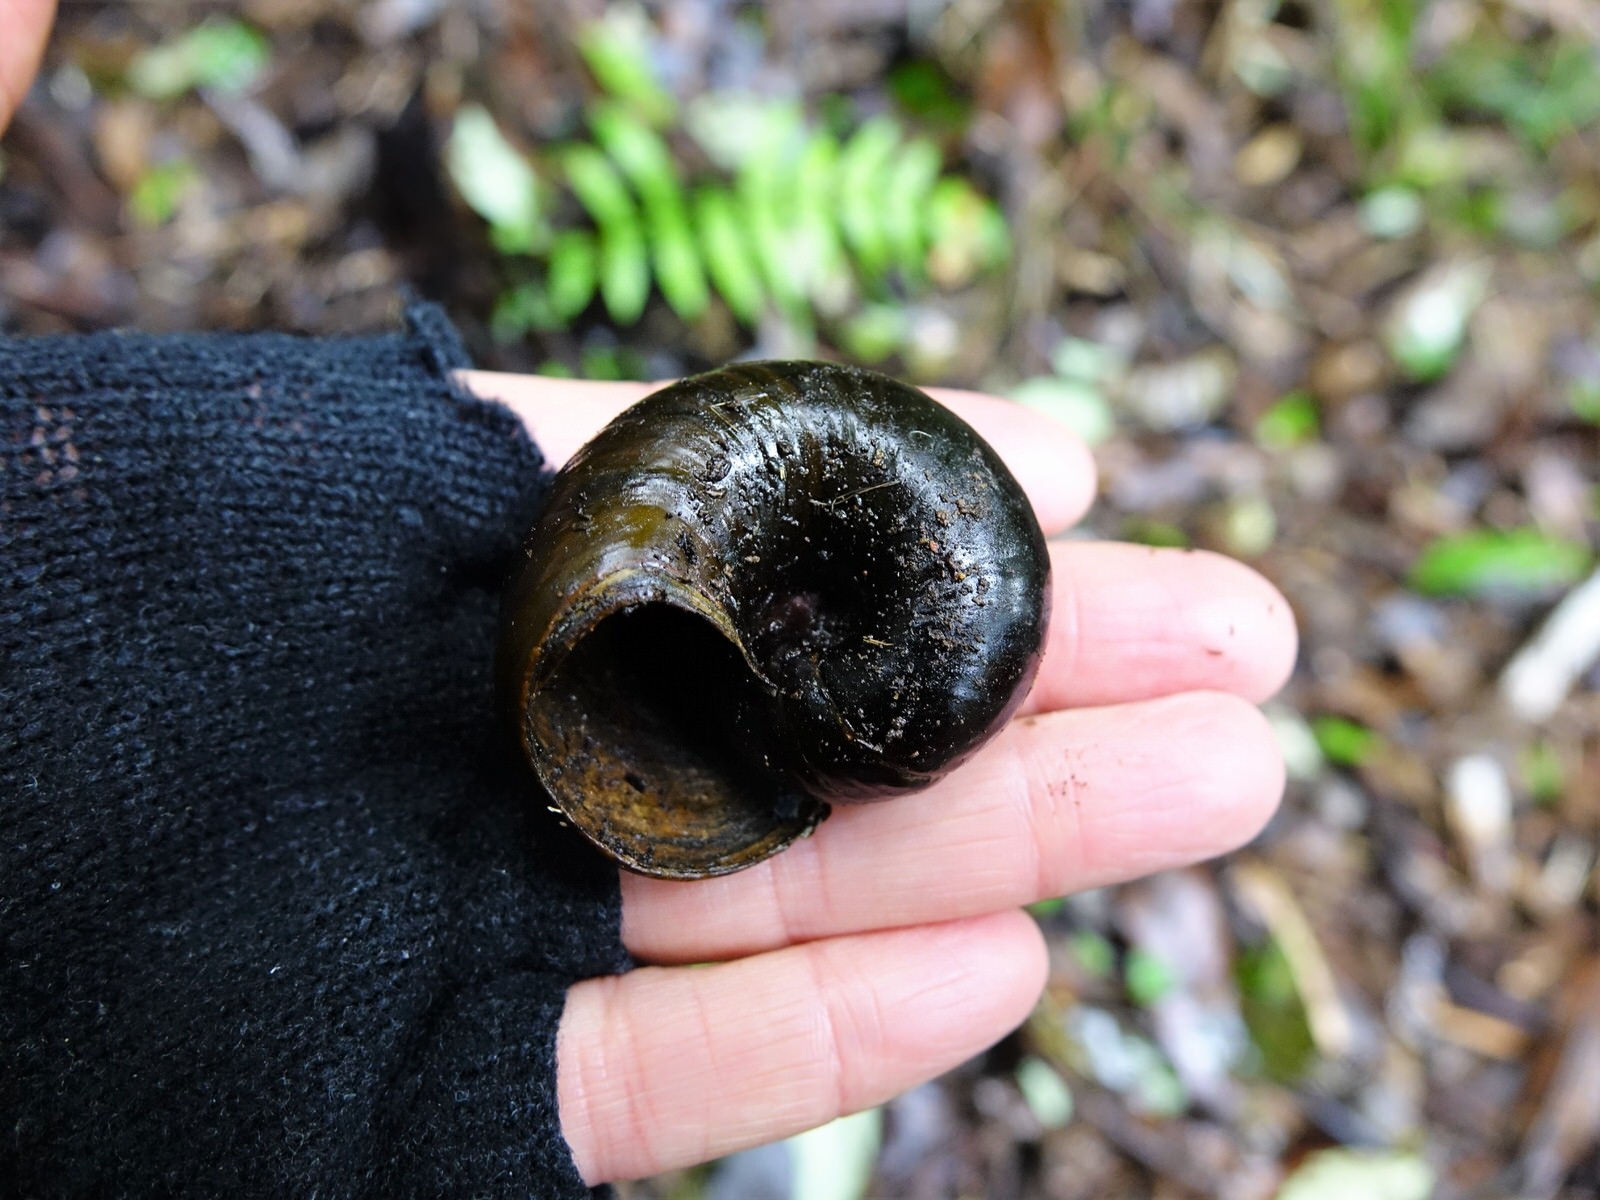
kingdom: Animalia
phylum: Mollusca
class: Gastropoda
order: Stylommatophora
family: Rhytididae
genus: Paryphanta
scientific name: Paryphanta busbyi
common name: Kauri snail
